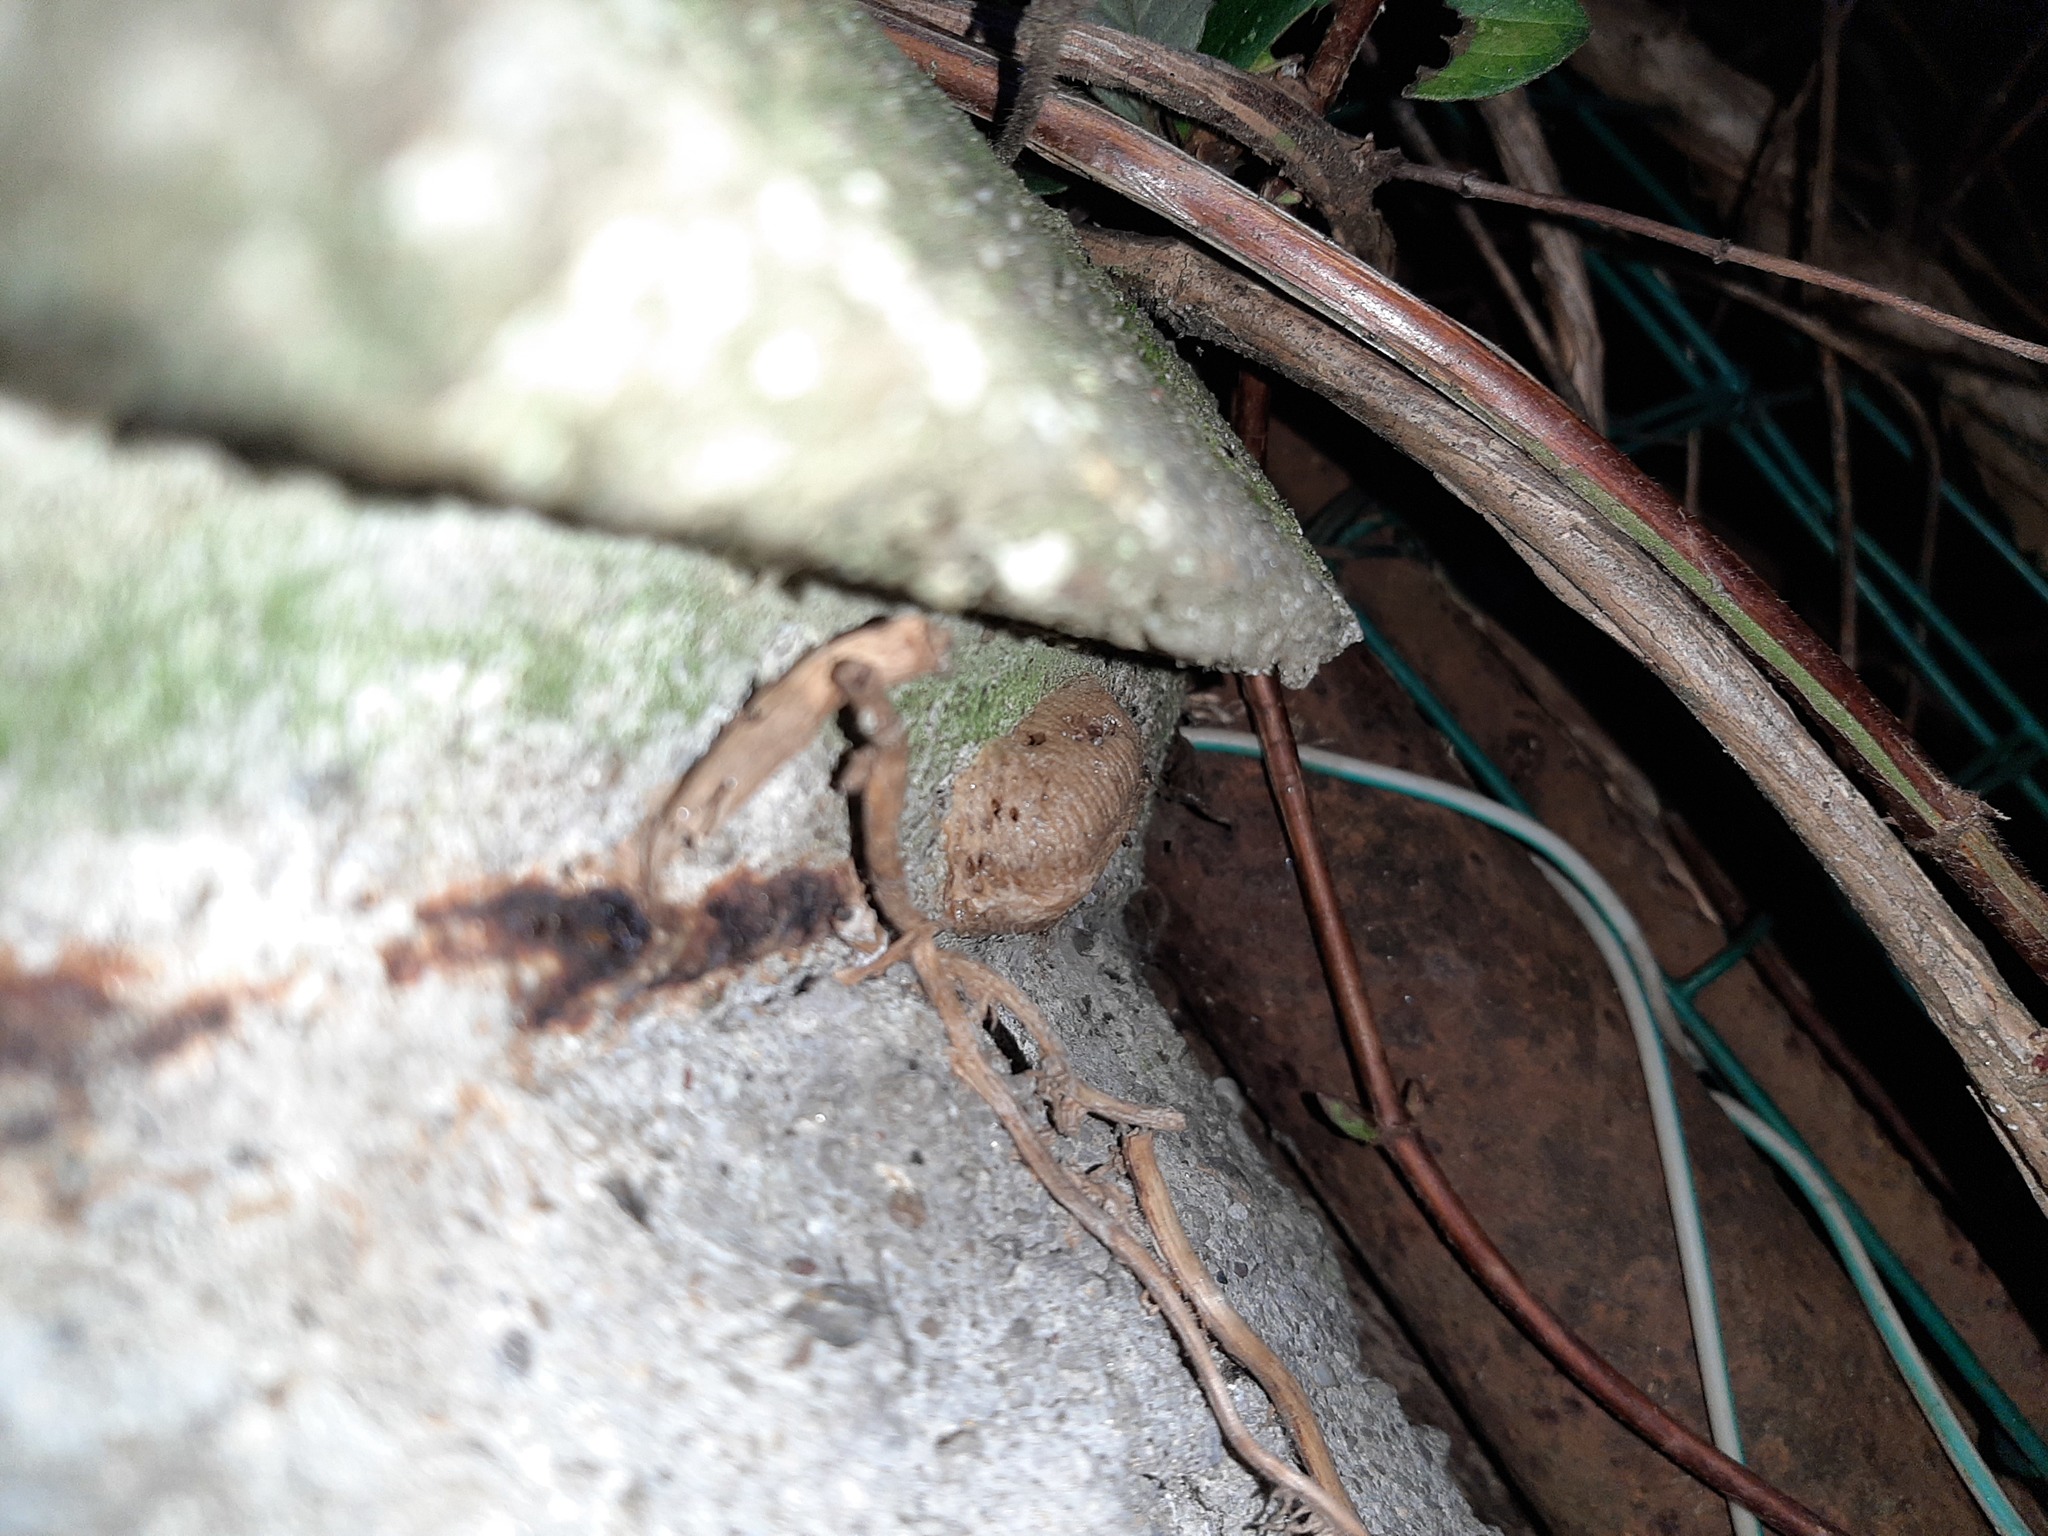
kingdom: Animalia
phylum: Arthropoda
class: Insecta
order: Mantodea
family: Mantidae
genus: Mantis
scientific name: Mantis religiosa
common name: Praying mantis
